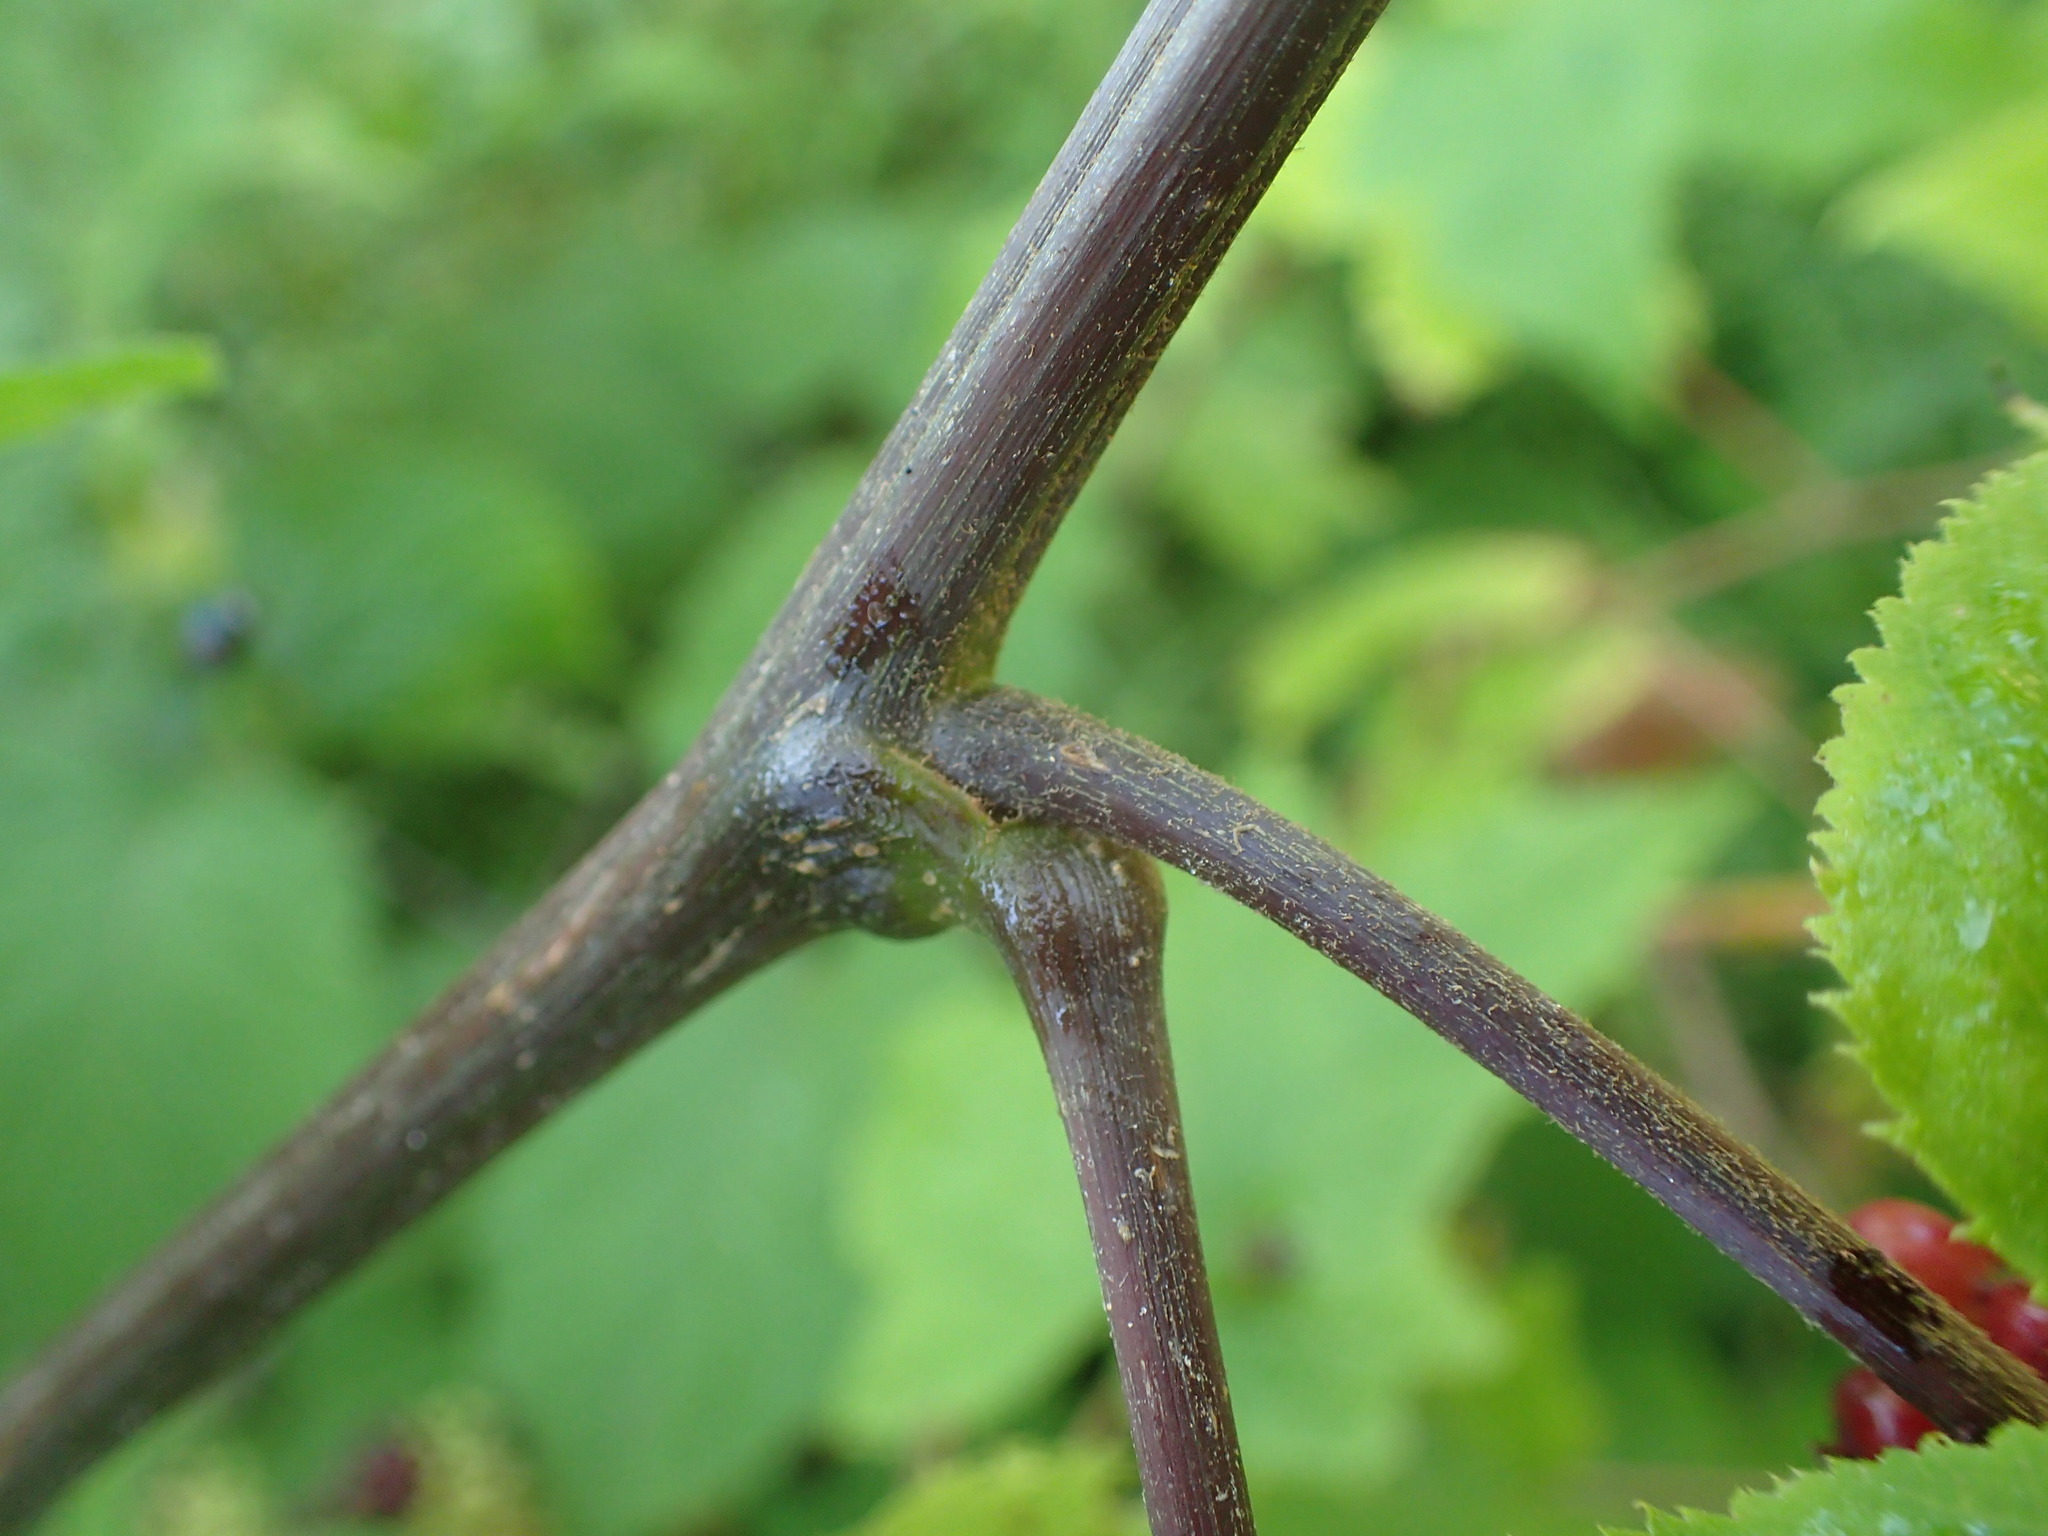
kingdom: Plantae
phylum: Tracheophyta
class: Magnoliopsida
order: Apiales
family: Araliaceae
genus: Aralia
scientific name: Aralia racemosa
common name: American-spikenard
